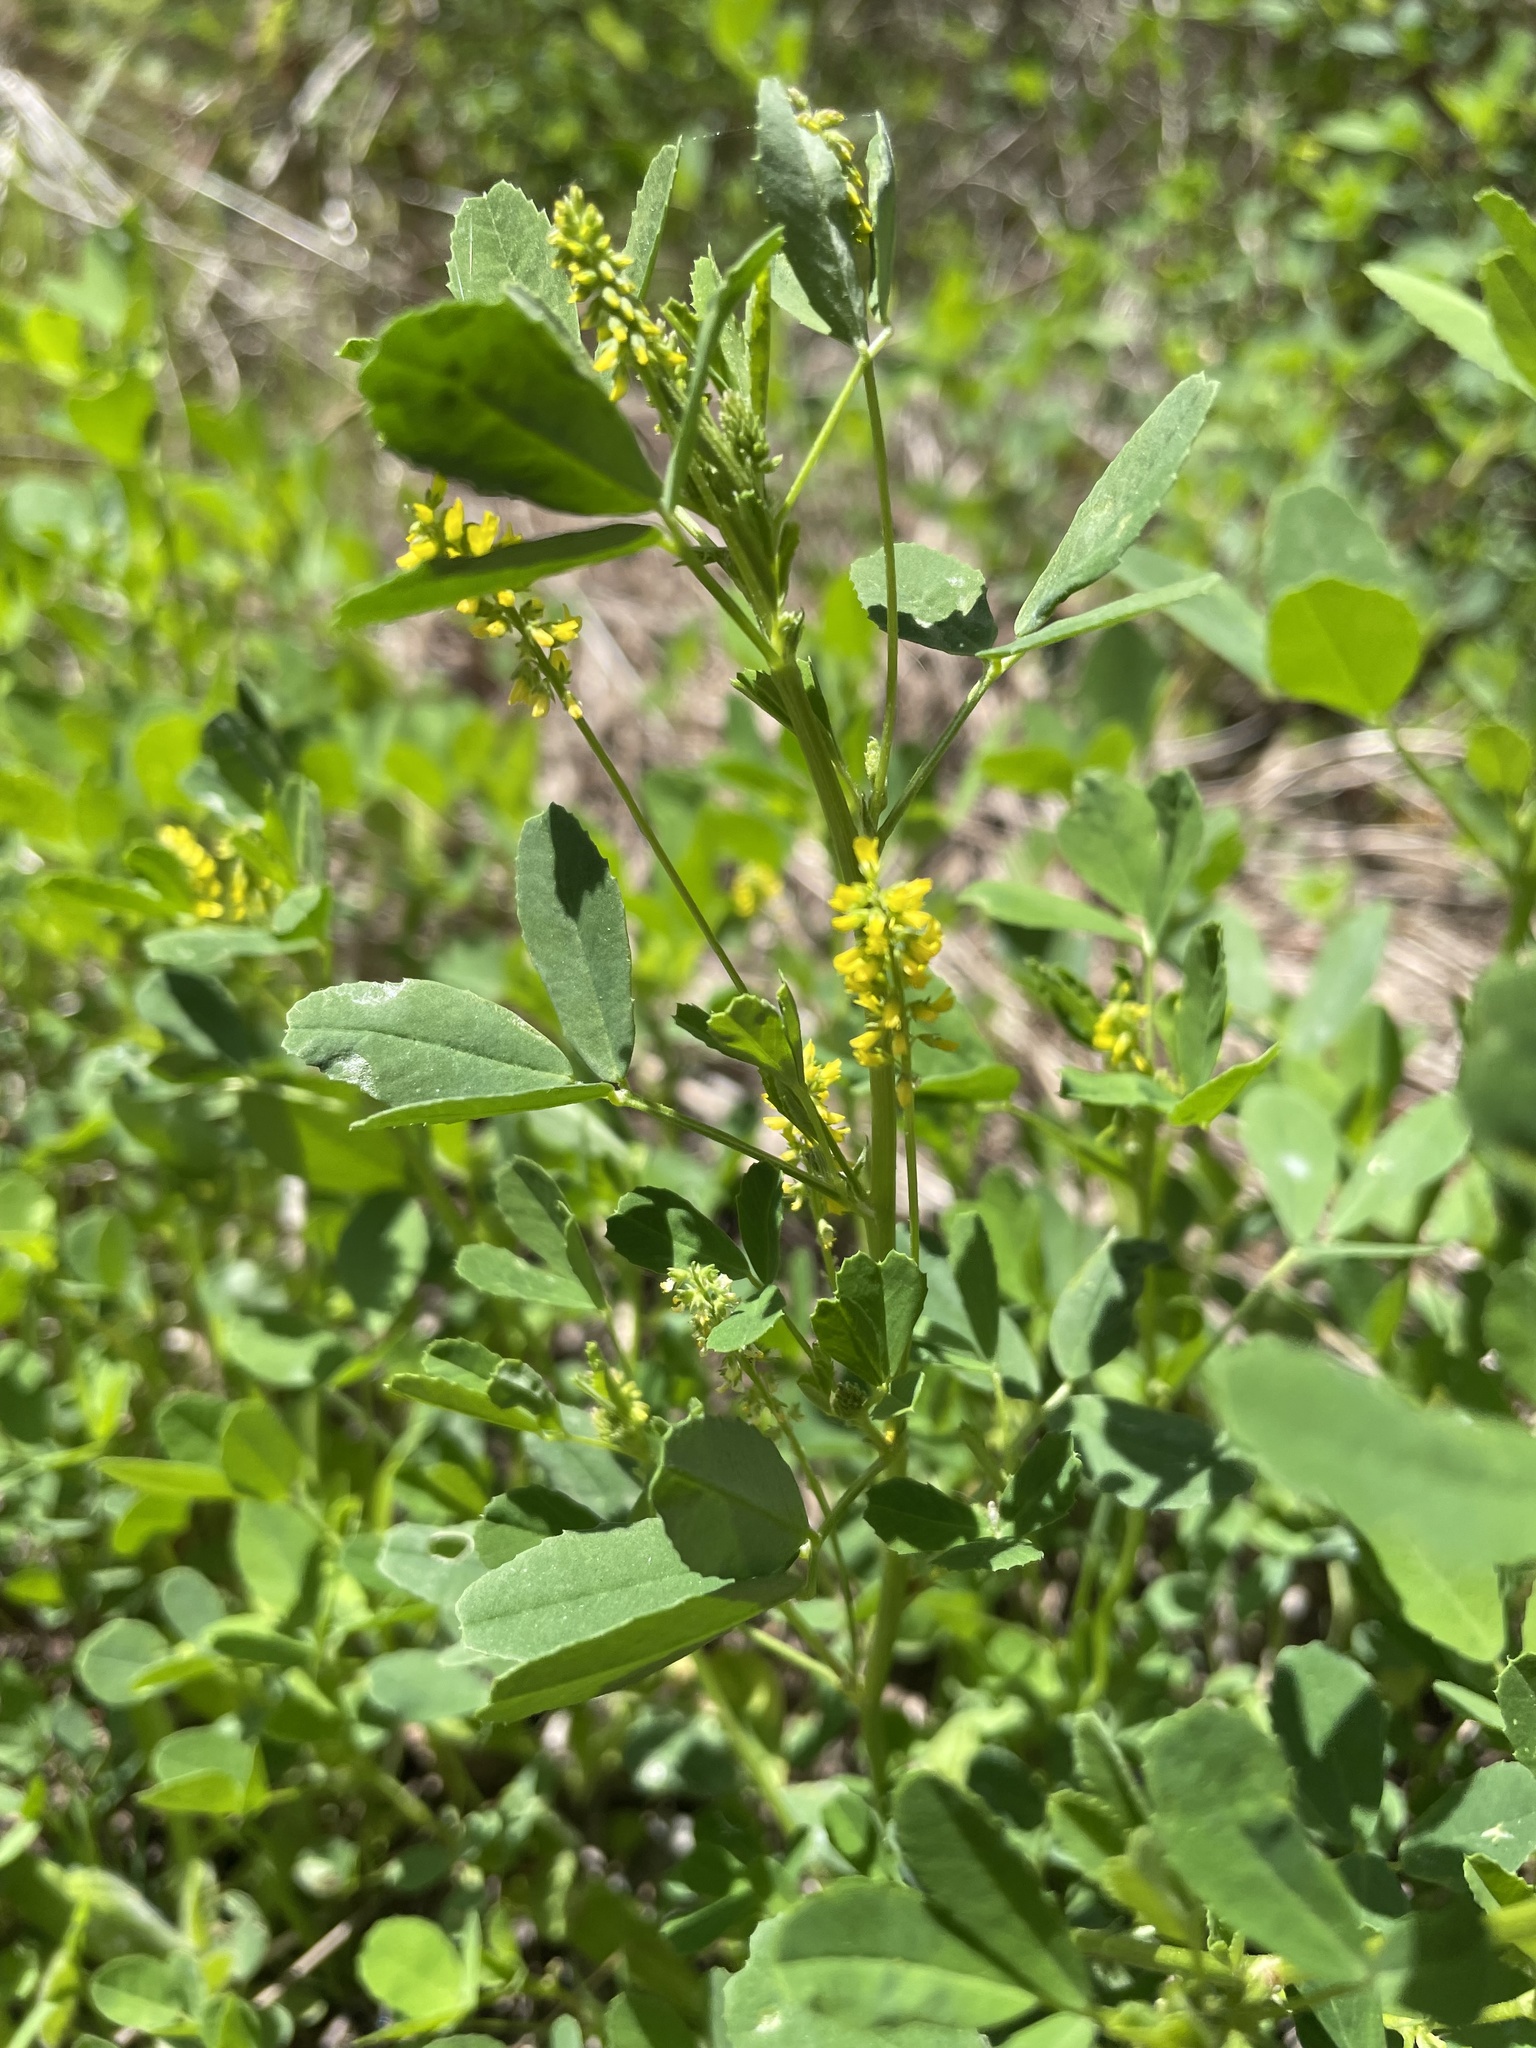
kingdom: Plantae
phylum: Tracheophyta
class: Magnoliopsida
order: Fabales
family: Fabaceae
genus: Melilotus
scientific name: Melilotus indicus
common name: Small melilot
